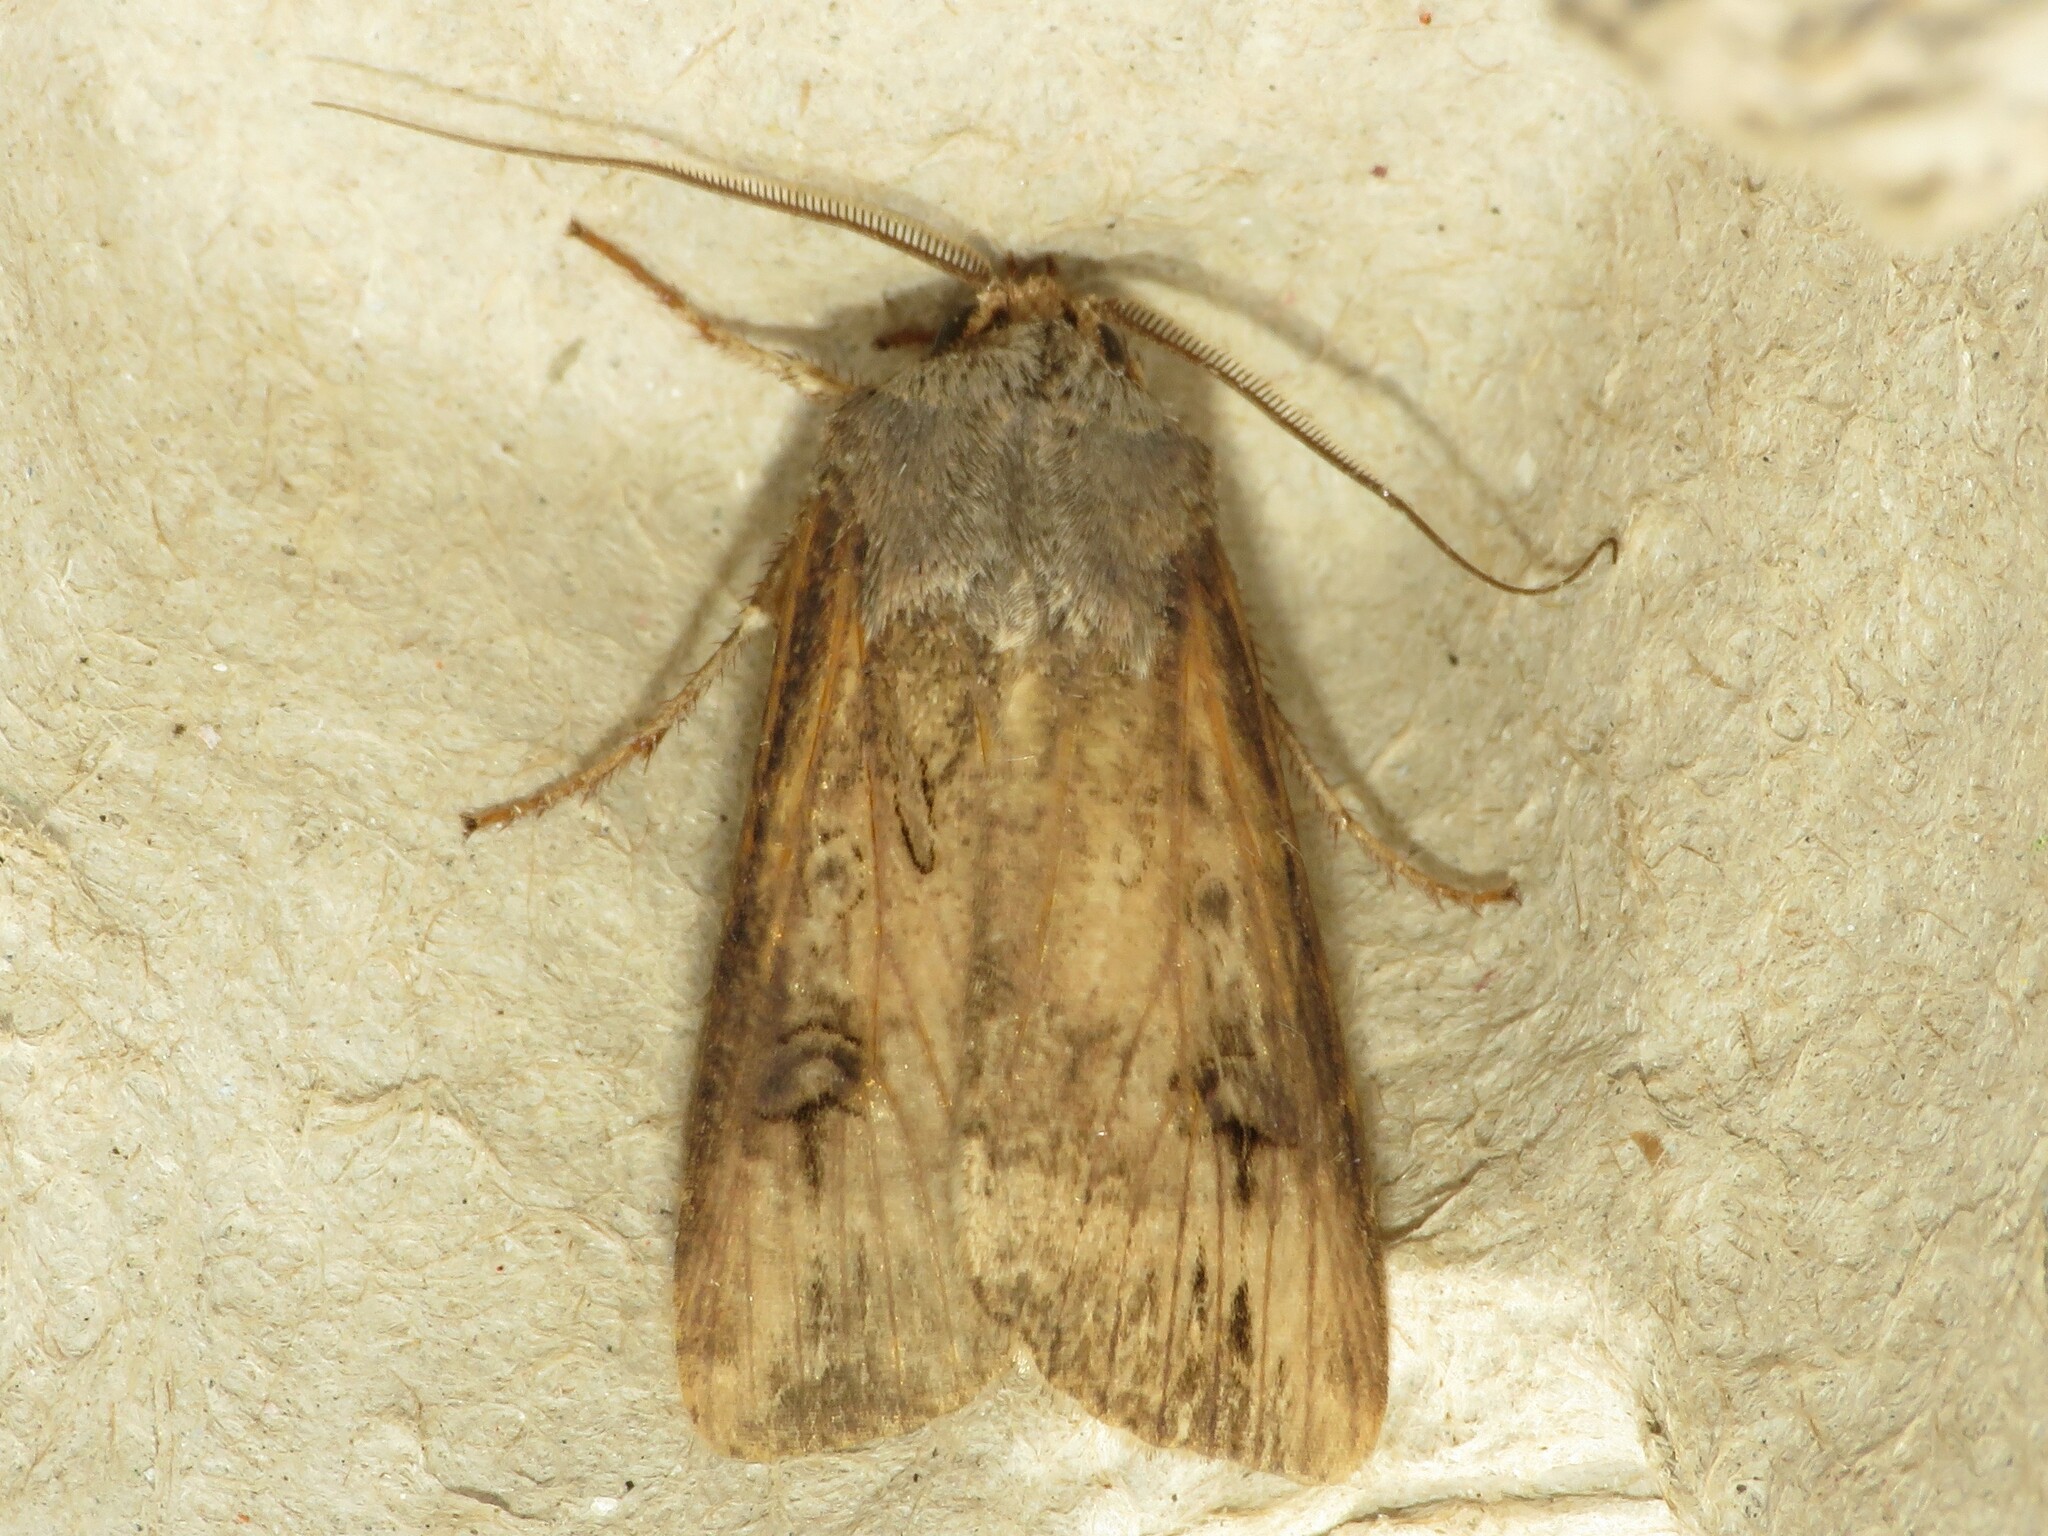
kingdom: Animalia
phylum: Arthropoda
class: Insecta
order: Lepidoptera
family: Noctuidae
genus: Agrotis
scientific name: Agrotis ipsilon
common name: Dark sword-grass
